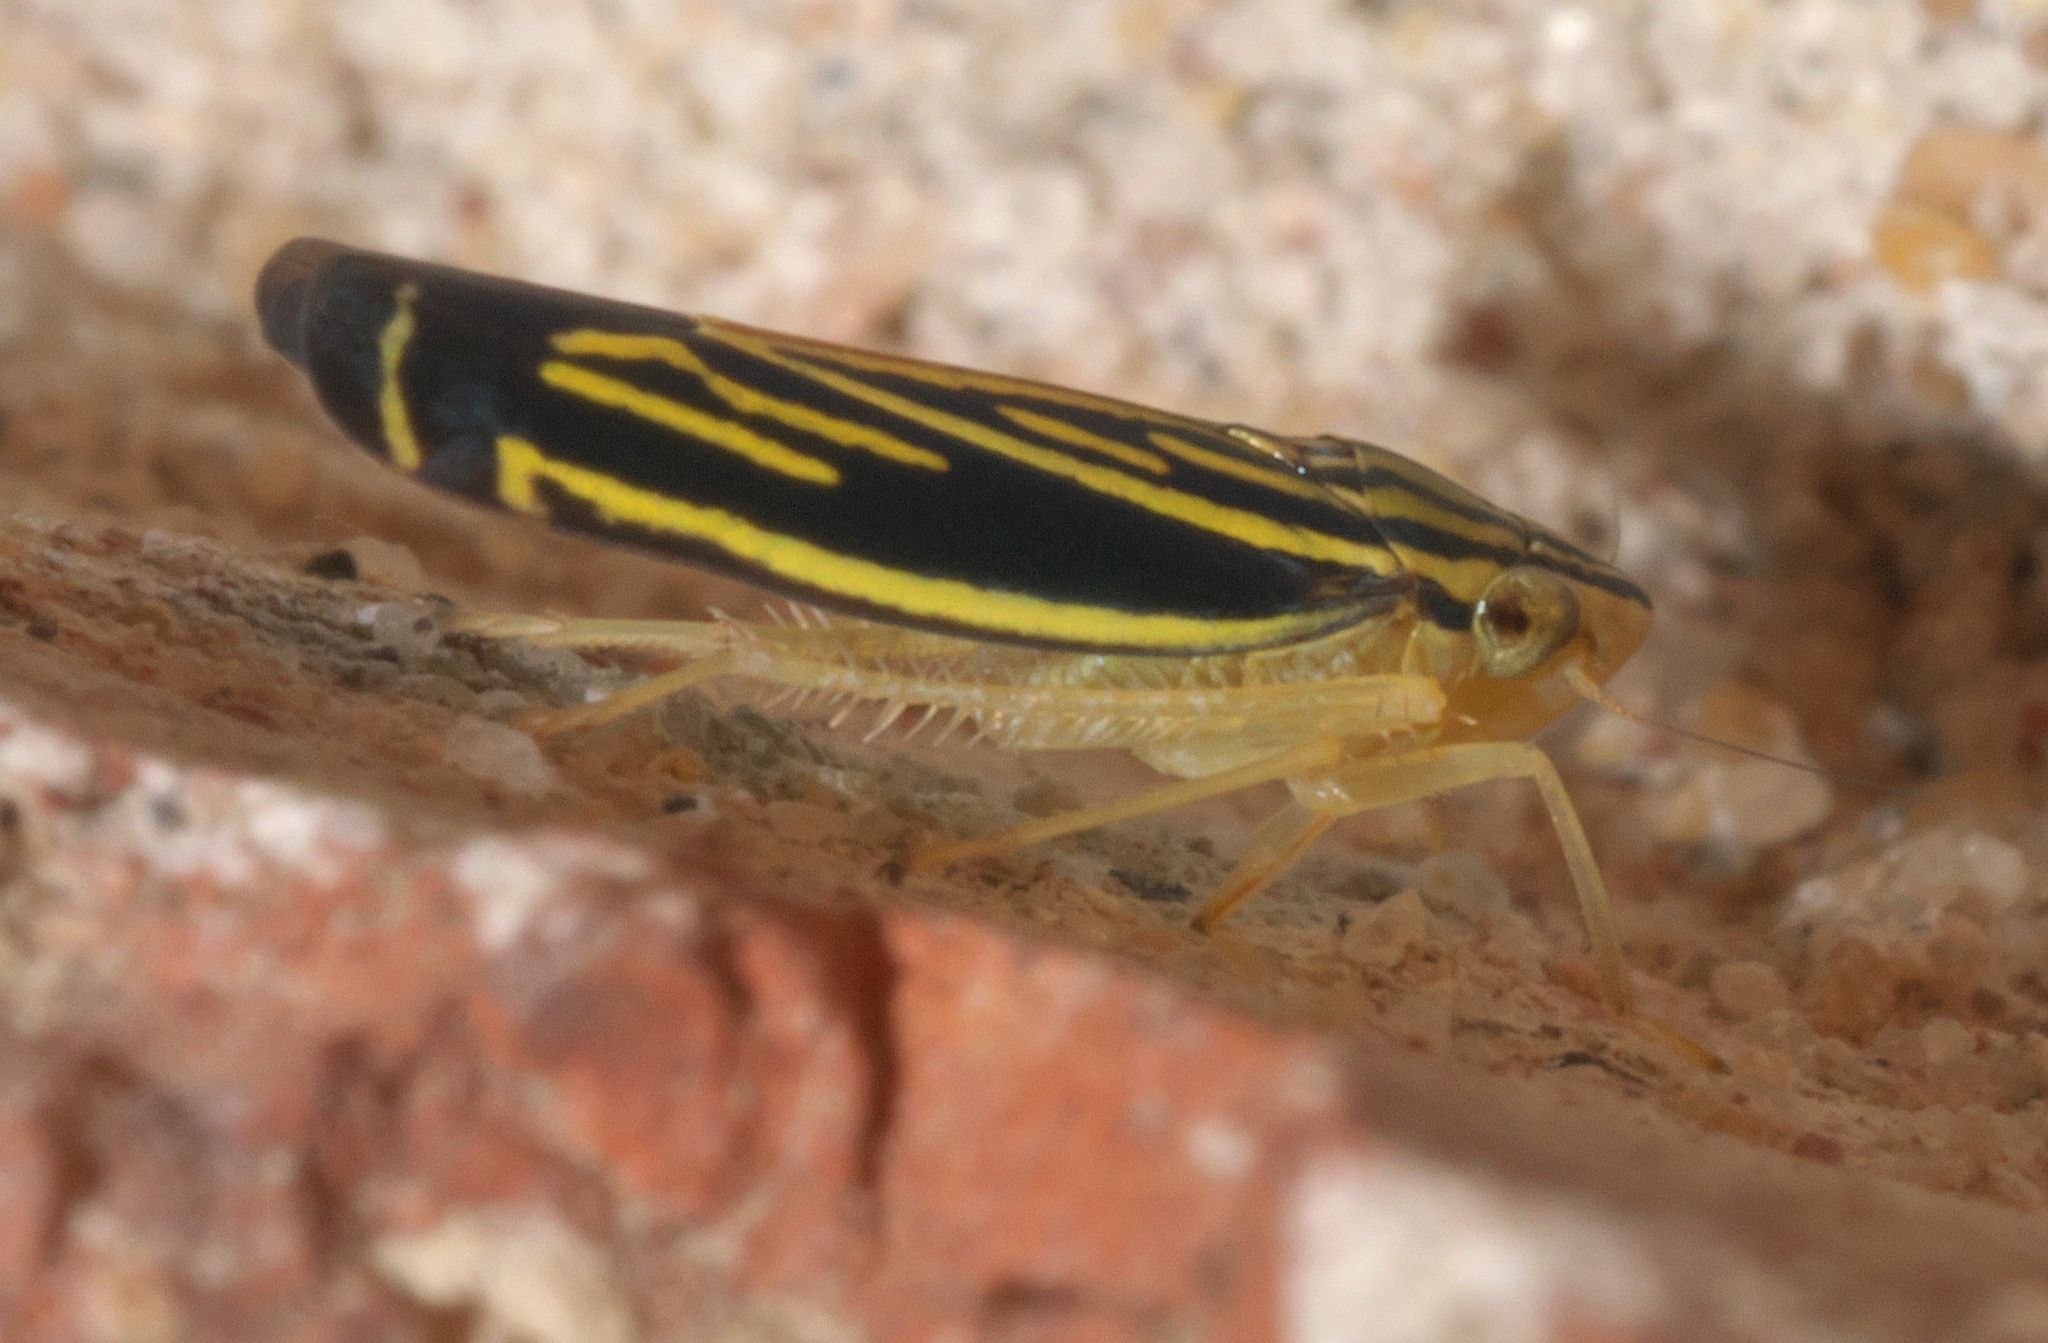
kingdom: Animalia
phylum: Arthropoda
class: Insecta
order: Hemiptera
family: Cicadellidae
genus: Sibovia
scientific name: Sibovia occatoria
